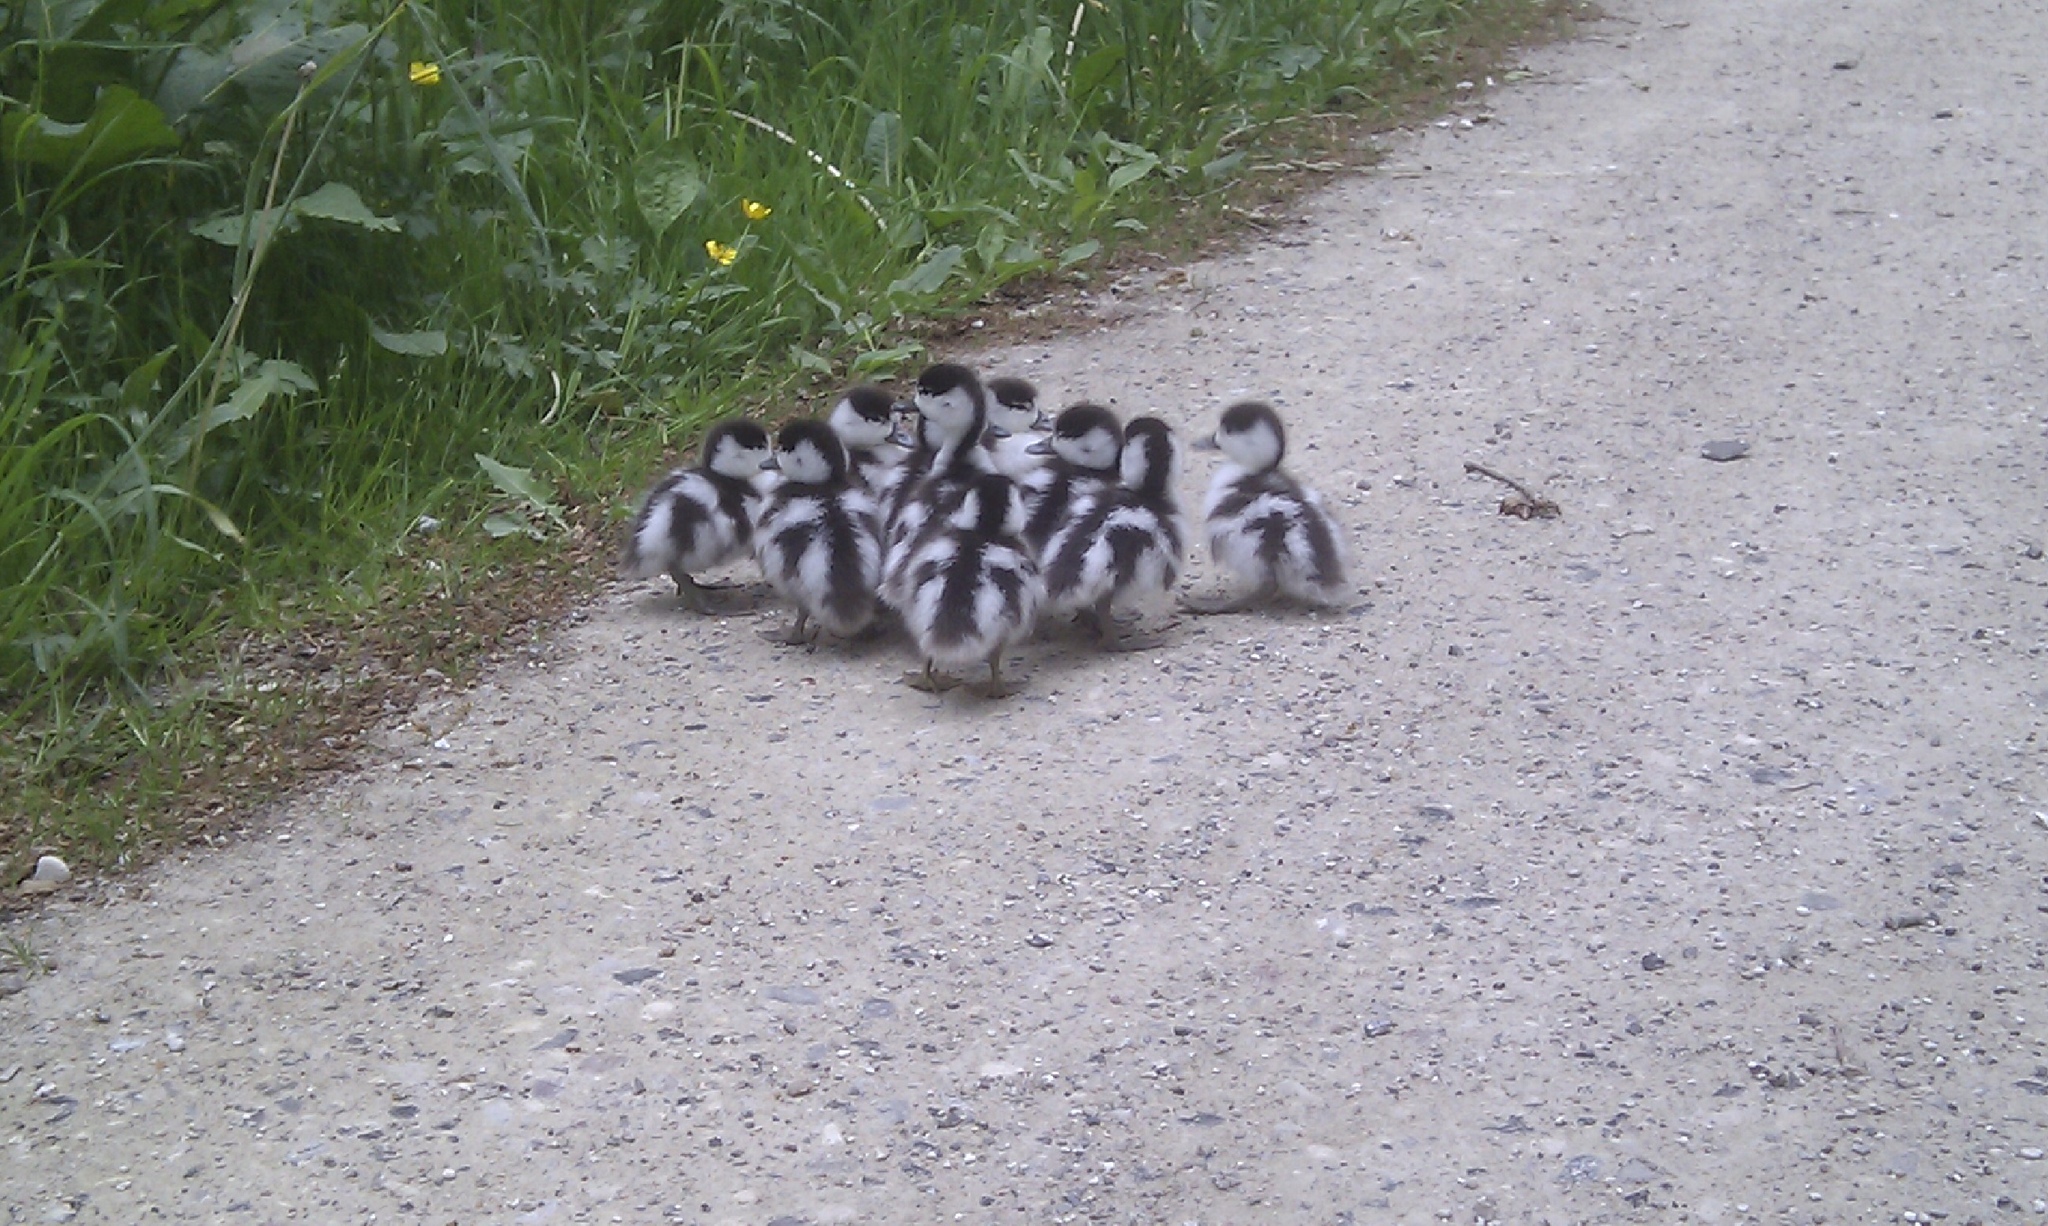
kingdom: Animalia
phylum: Chordata
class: Aves
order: Anseriformes
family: Anatidae
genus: Tadorna
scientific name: Tadorna tadorna
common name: Common shelduck
